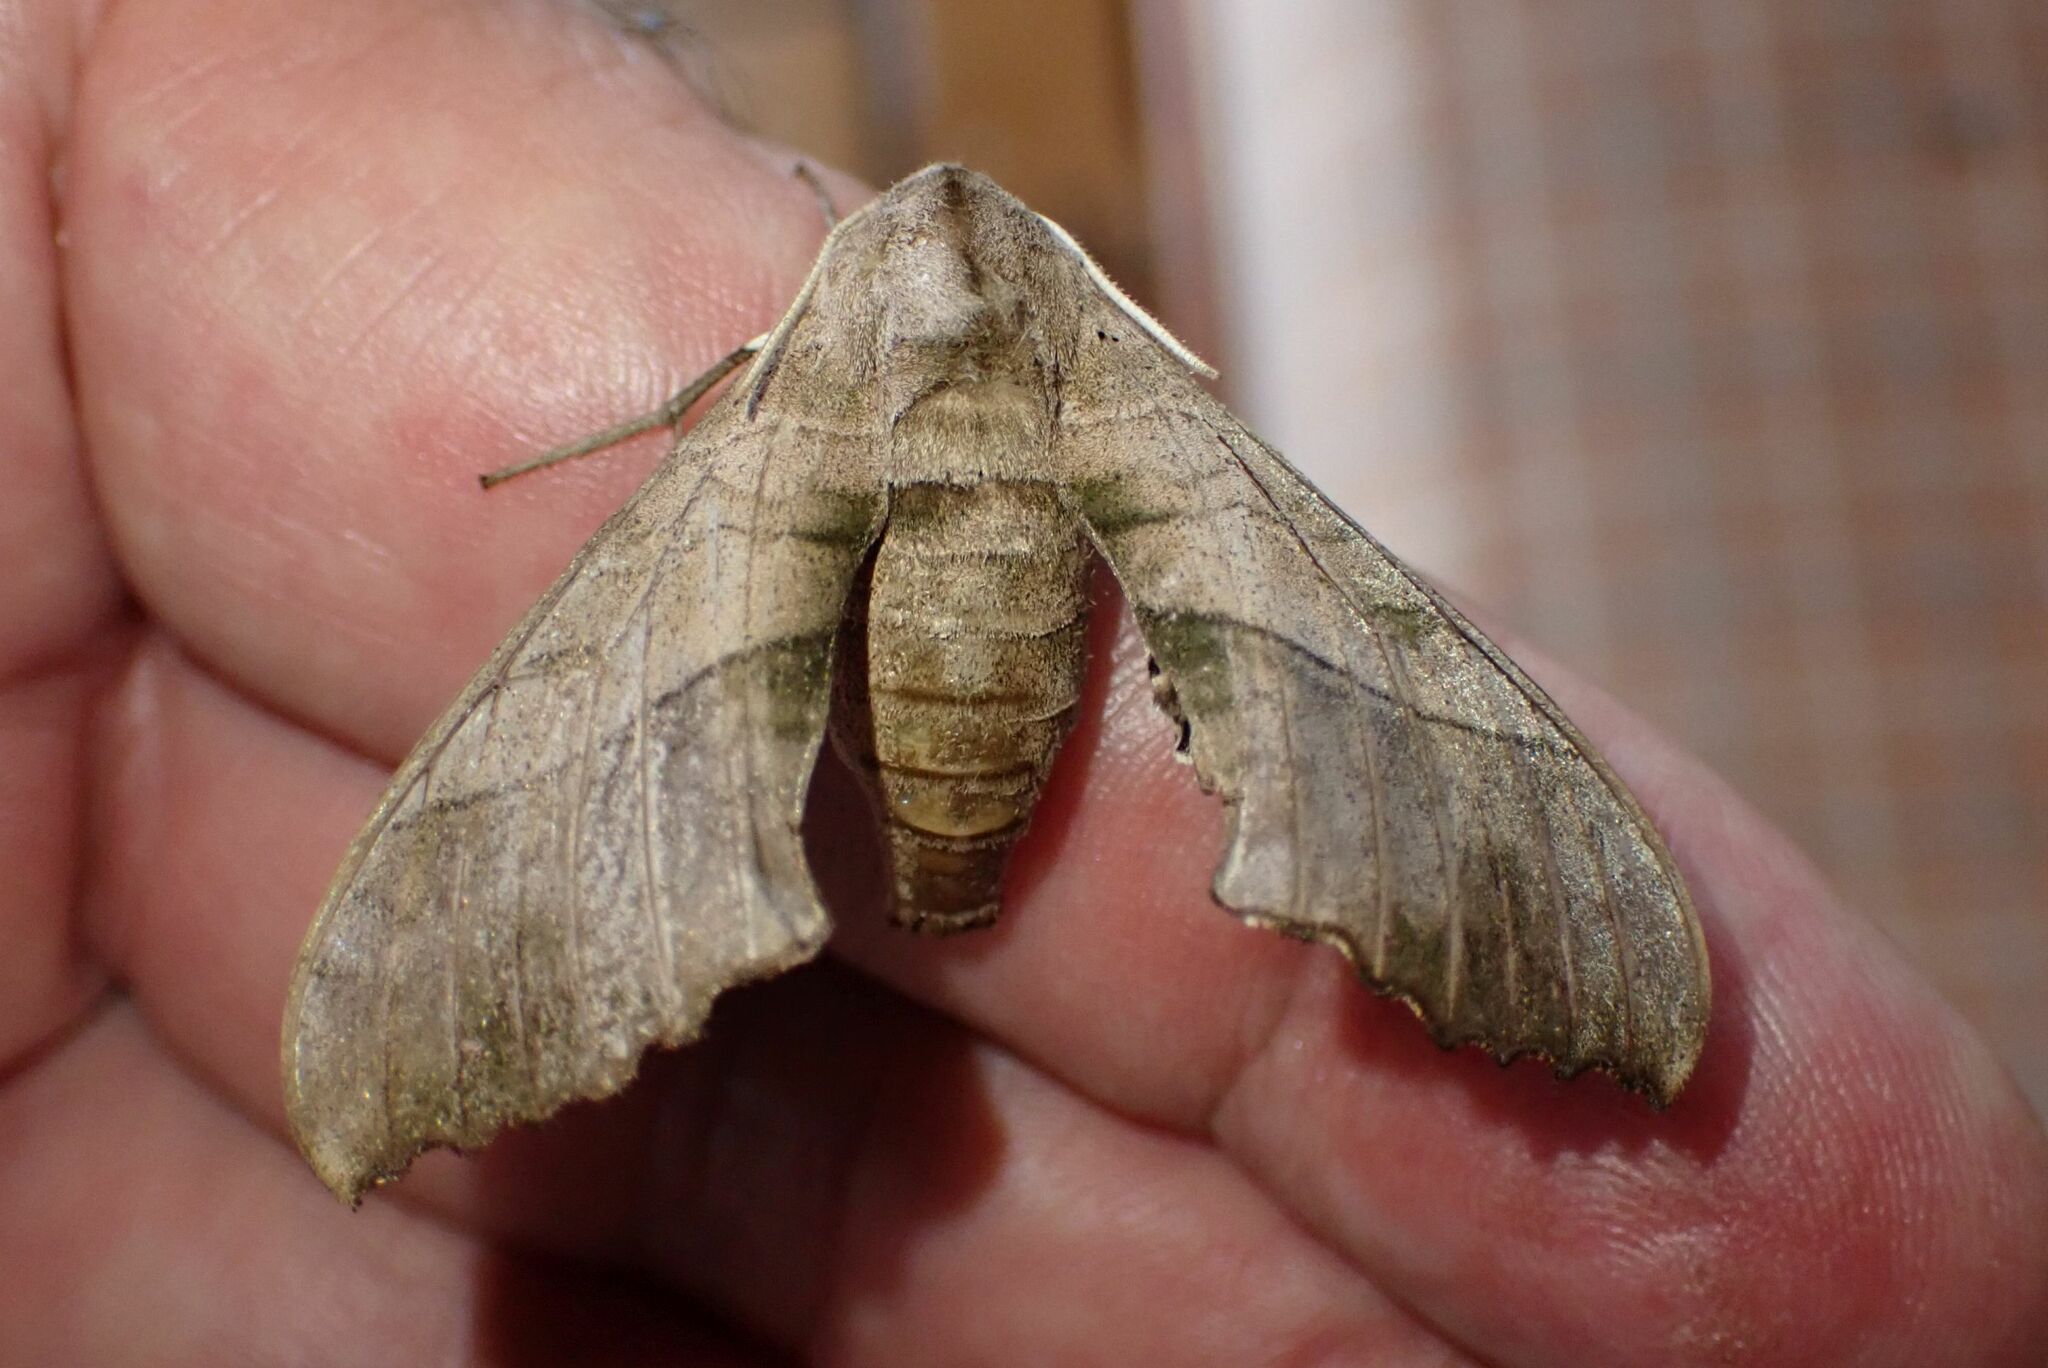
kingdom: Animalia
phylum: Arthropoda
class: Insecta
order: Lepidoptera
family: Sphingidae
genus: Rufoclanis
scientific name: Rufoclanis numosae
